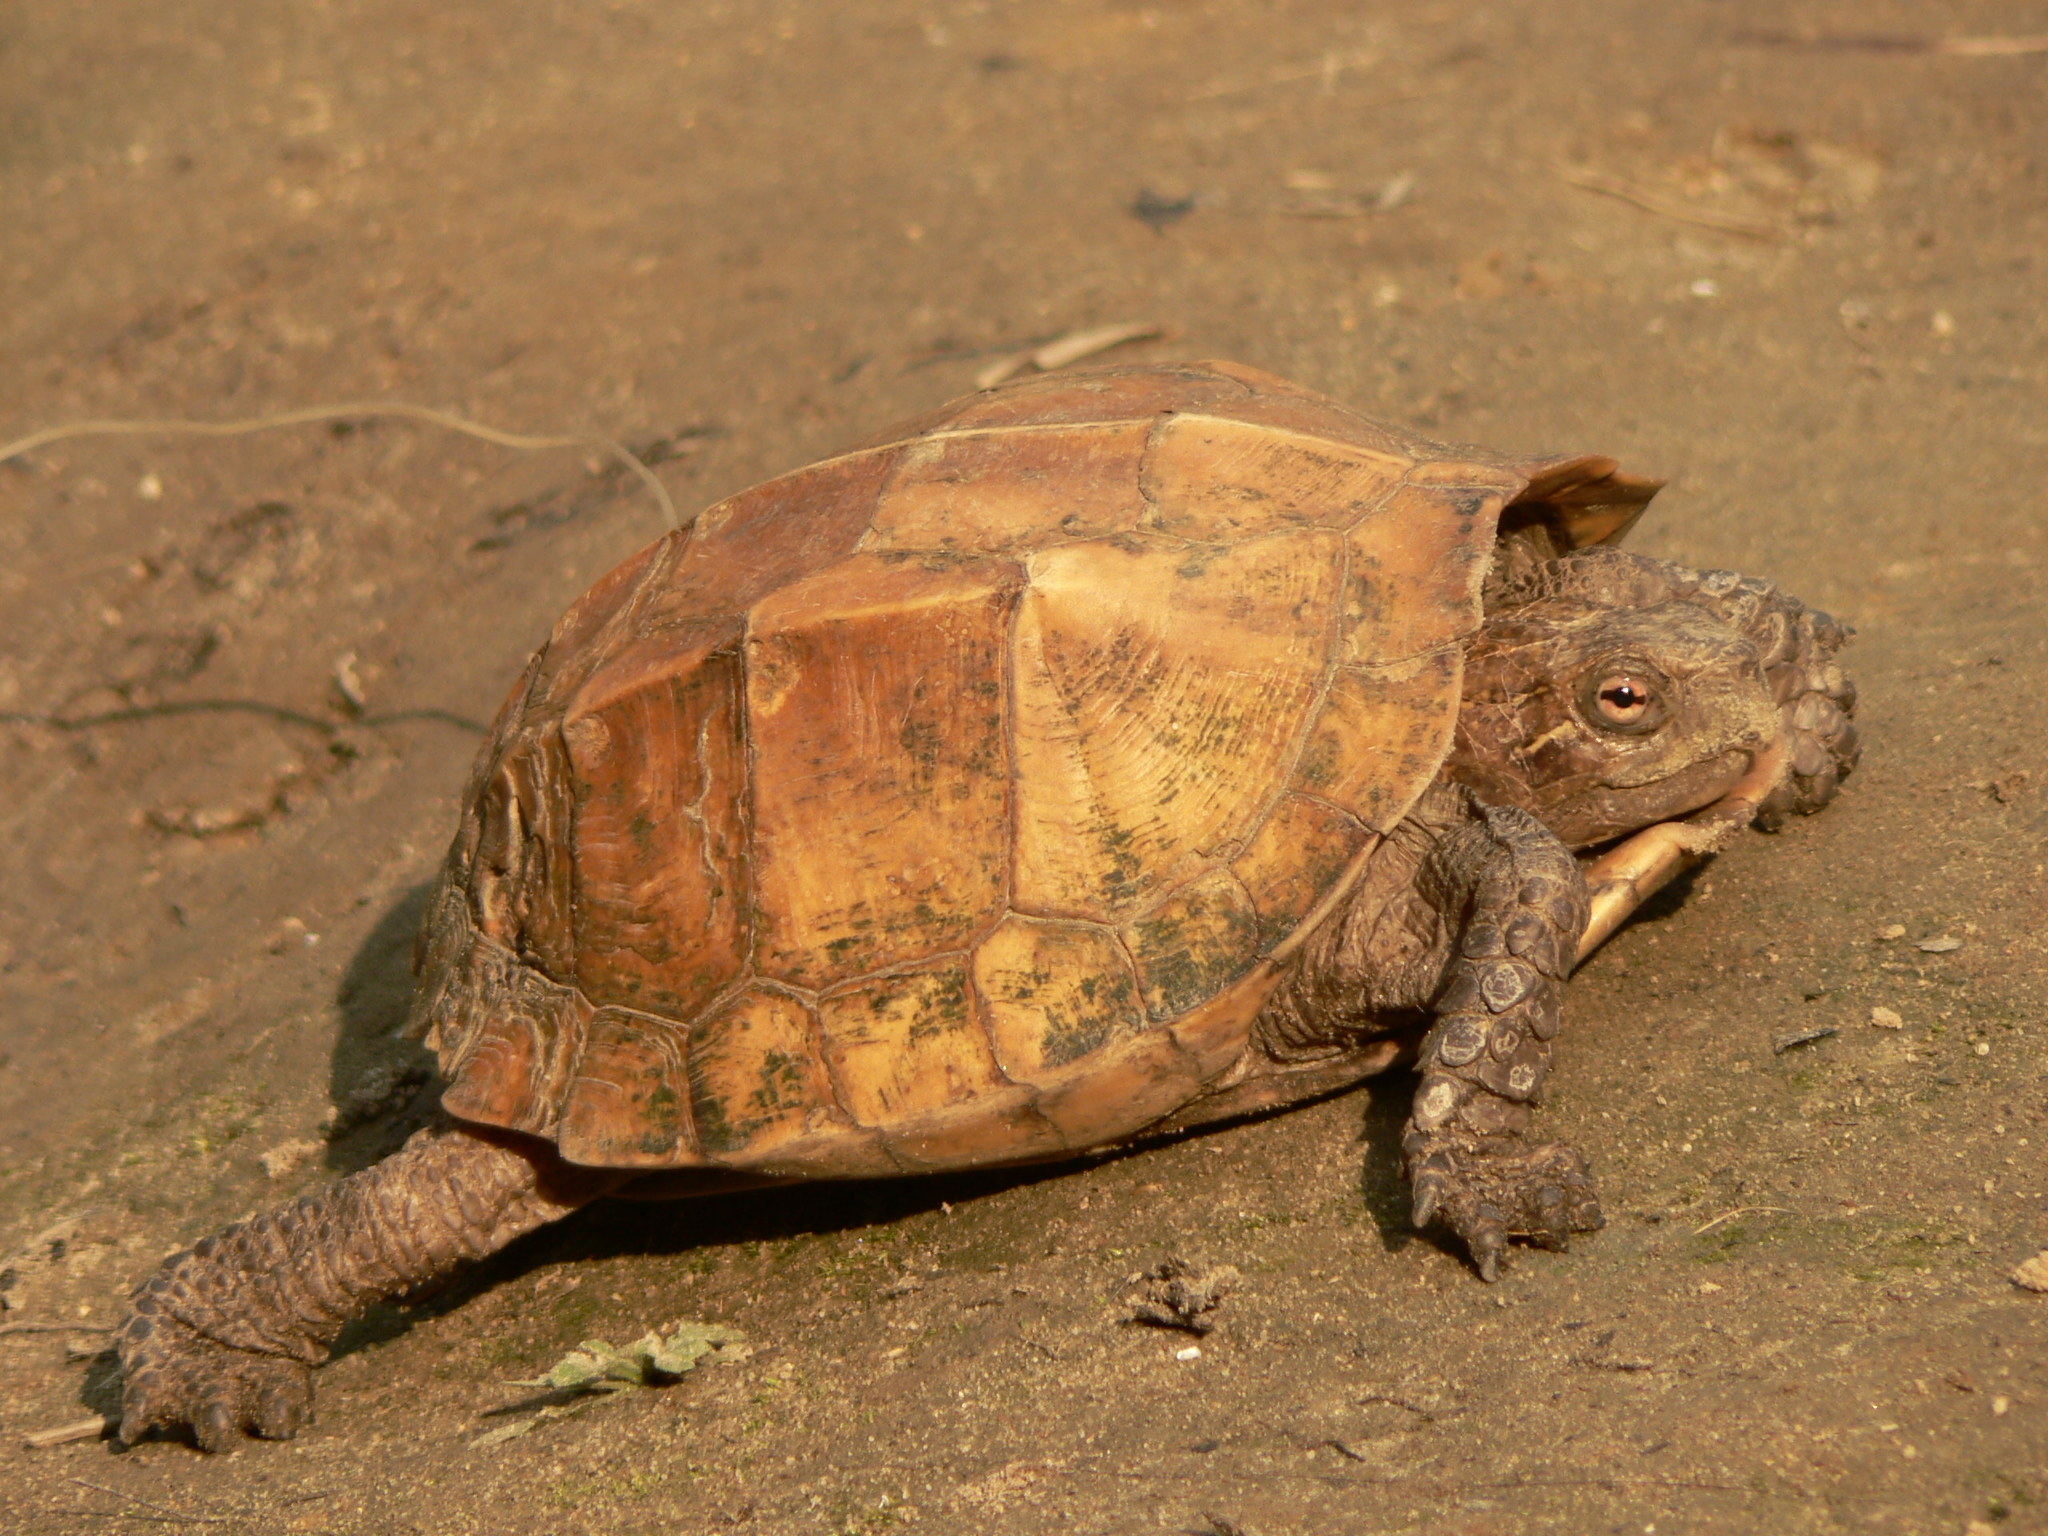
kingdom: Animalia
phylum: Chordata
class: Testudines
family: Geoemydidae
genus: Cuora
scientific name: Cuora mouhotii
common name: Keeled box turtle
